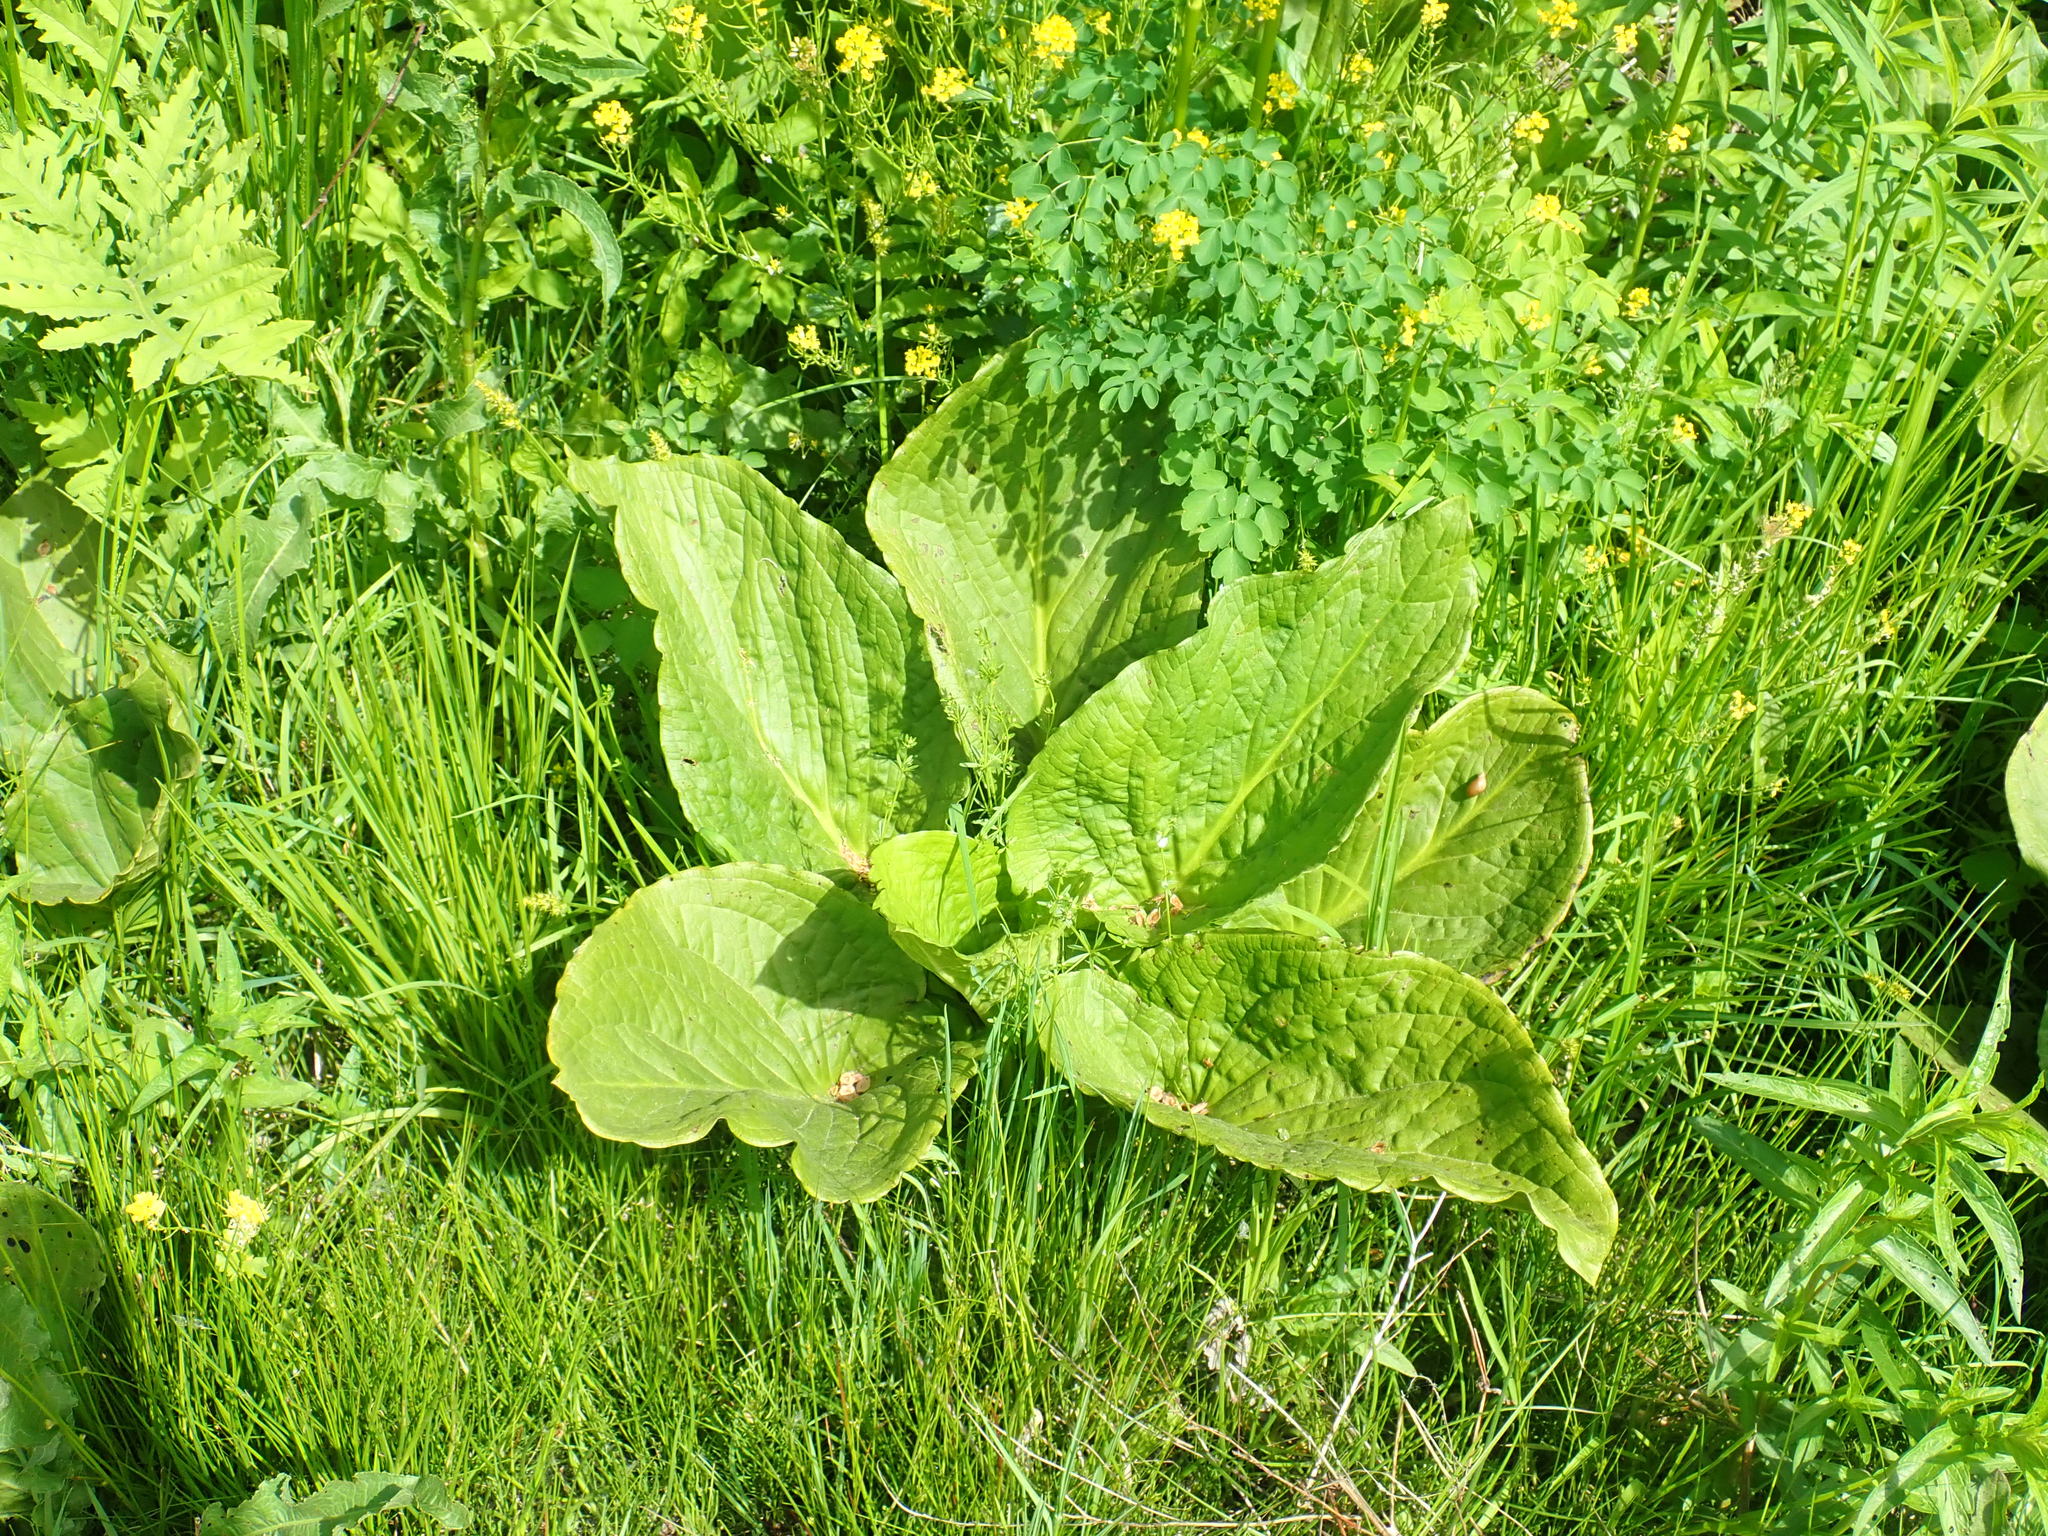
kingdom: Plantae
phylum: Tracheophyta
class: Liliopsida
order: Alismatales
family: Araceae
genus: Symplocarpus
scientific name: Symplocarpus foetidus
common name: Eastern skunk cabbage
